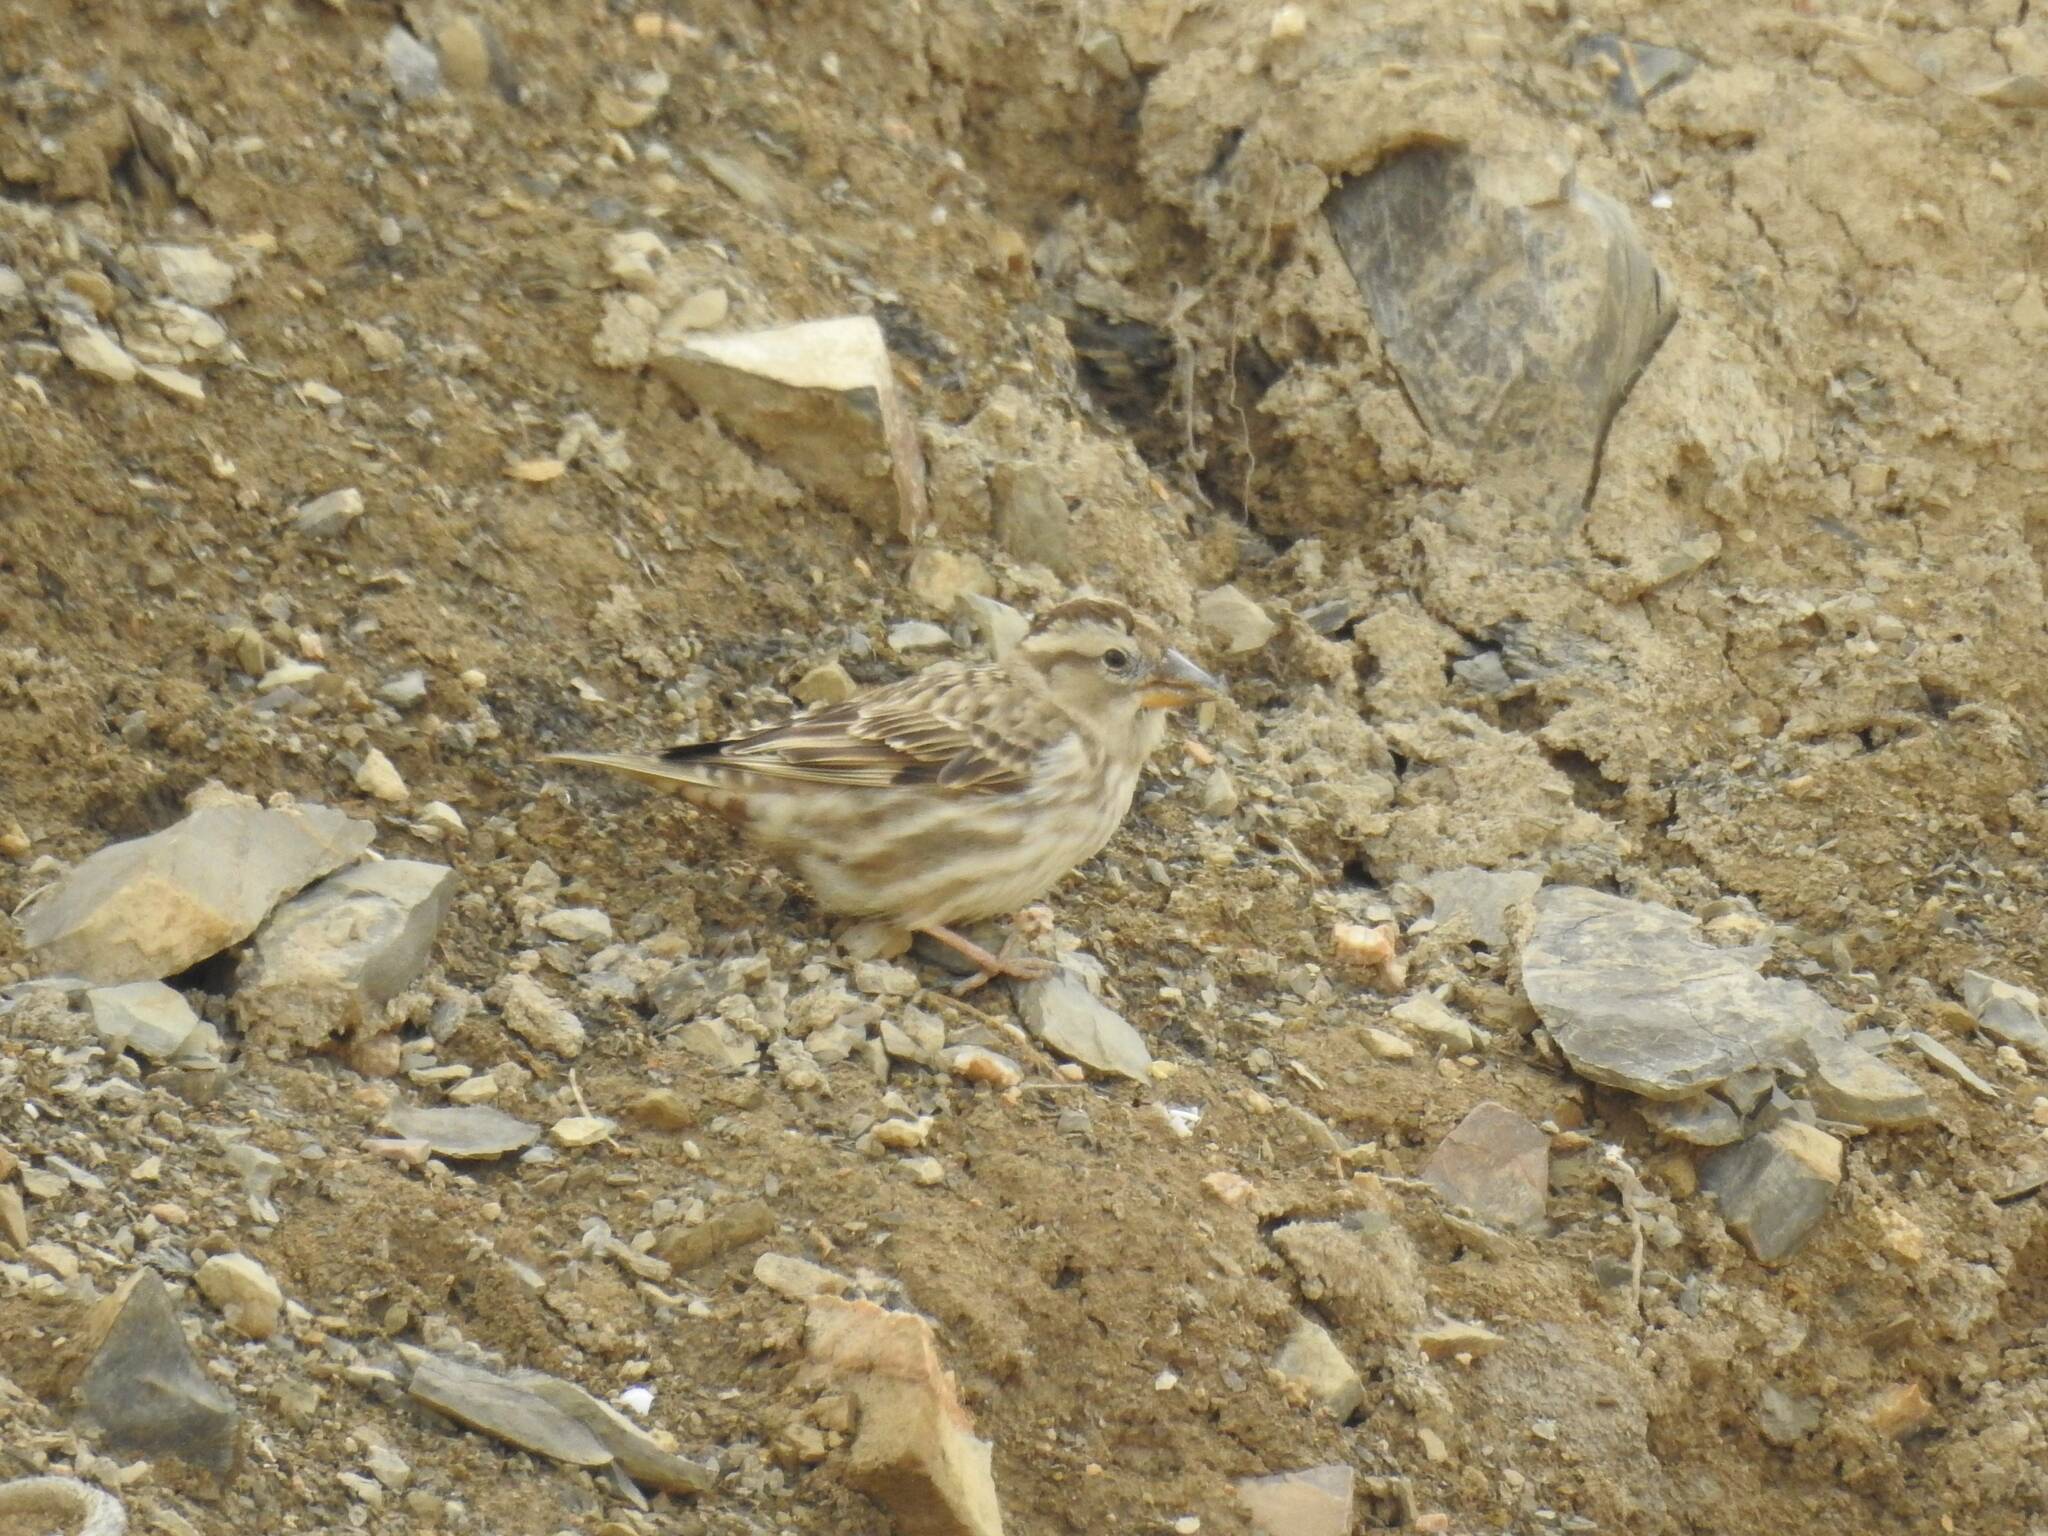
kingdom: Animalia
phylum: Chordata
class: Aves
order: Passeriformes
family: Passeridae
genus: Petronia
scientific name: Petronia petronia
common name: Rock sparrow
